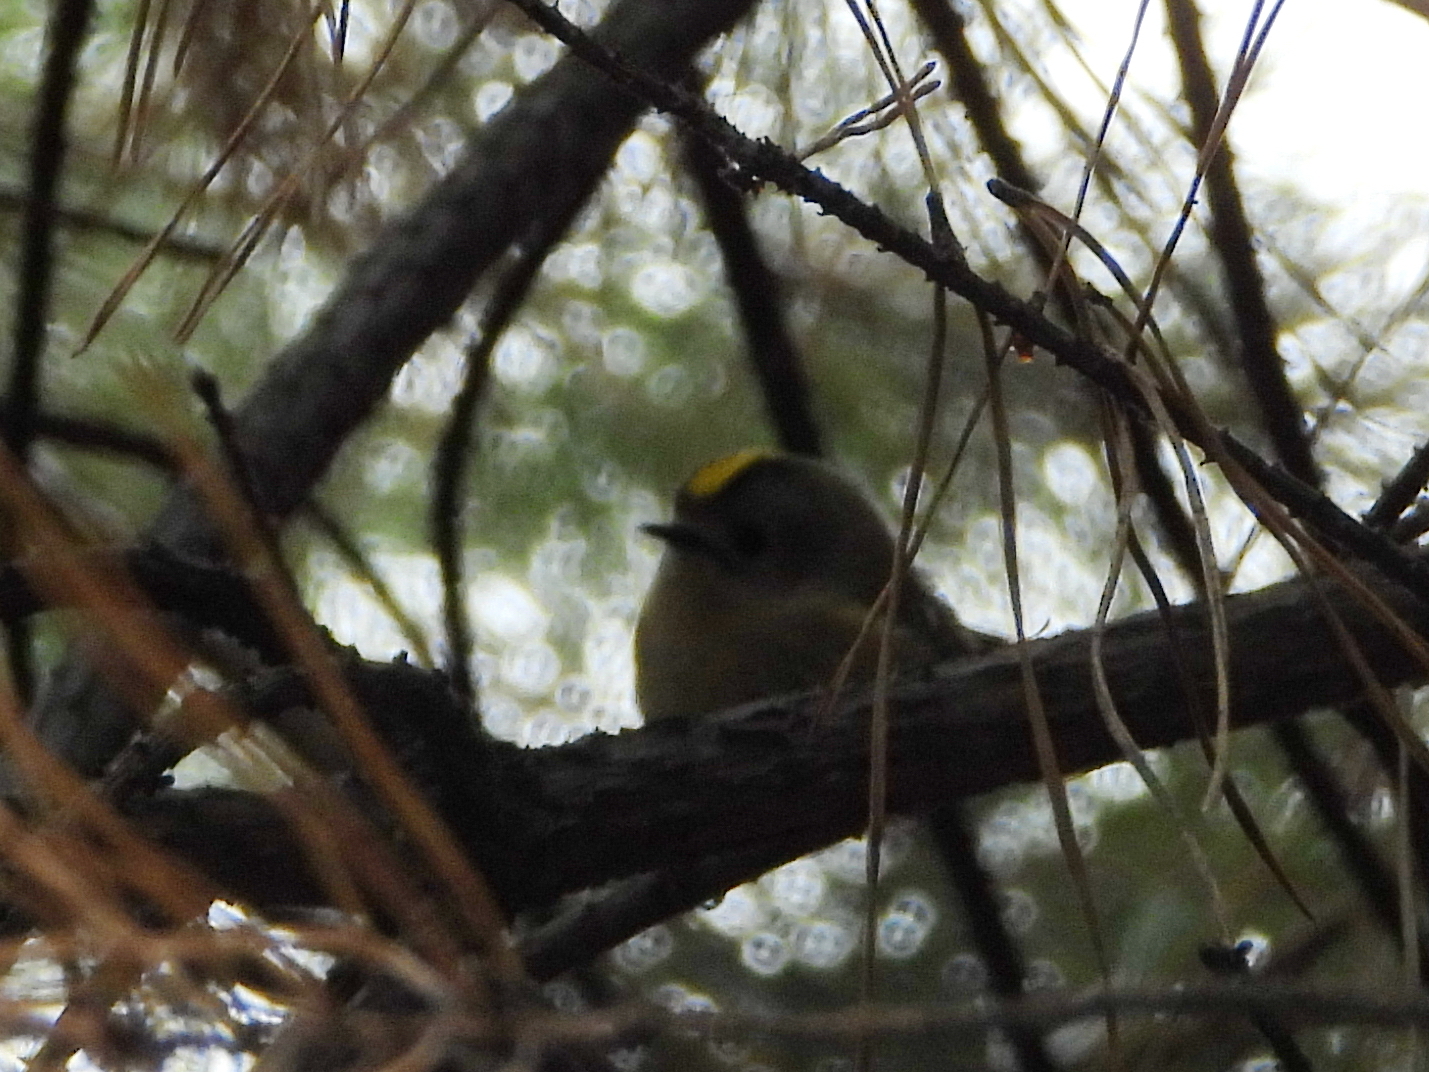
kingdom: Animalia
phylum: Chordata
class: Aves
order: Passeriformes
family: Regulidae
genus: Regulus
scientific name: Regulus regulus
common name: Goldcrest
